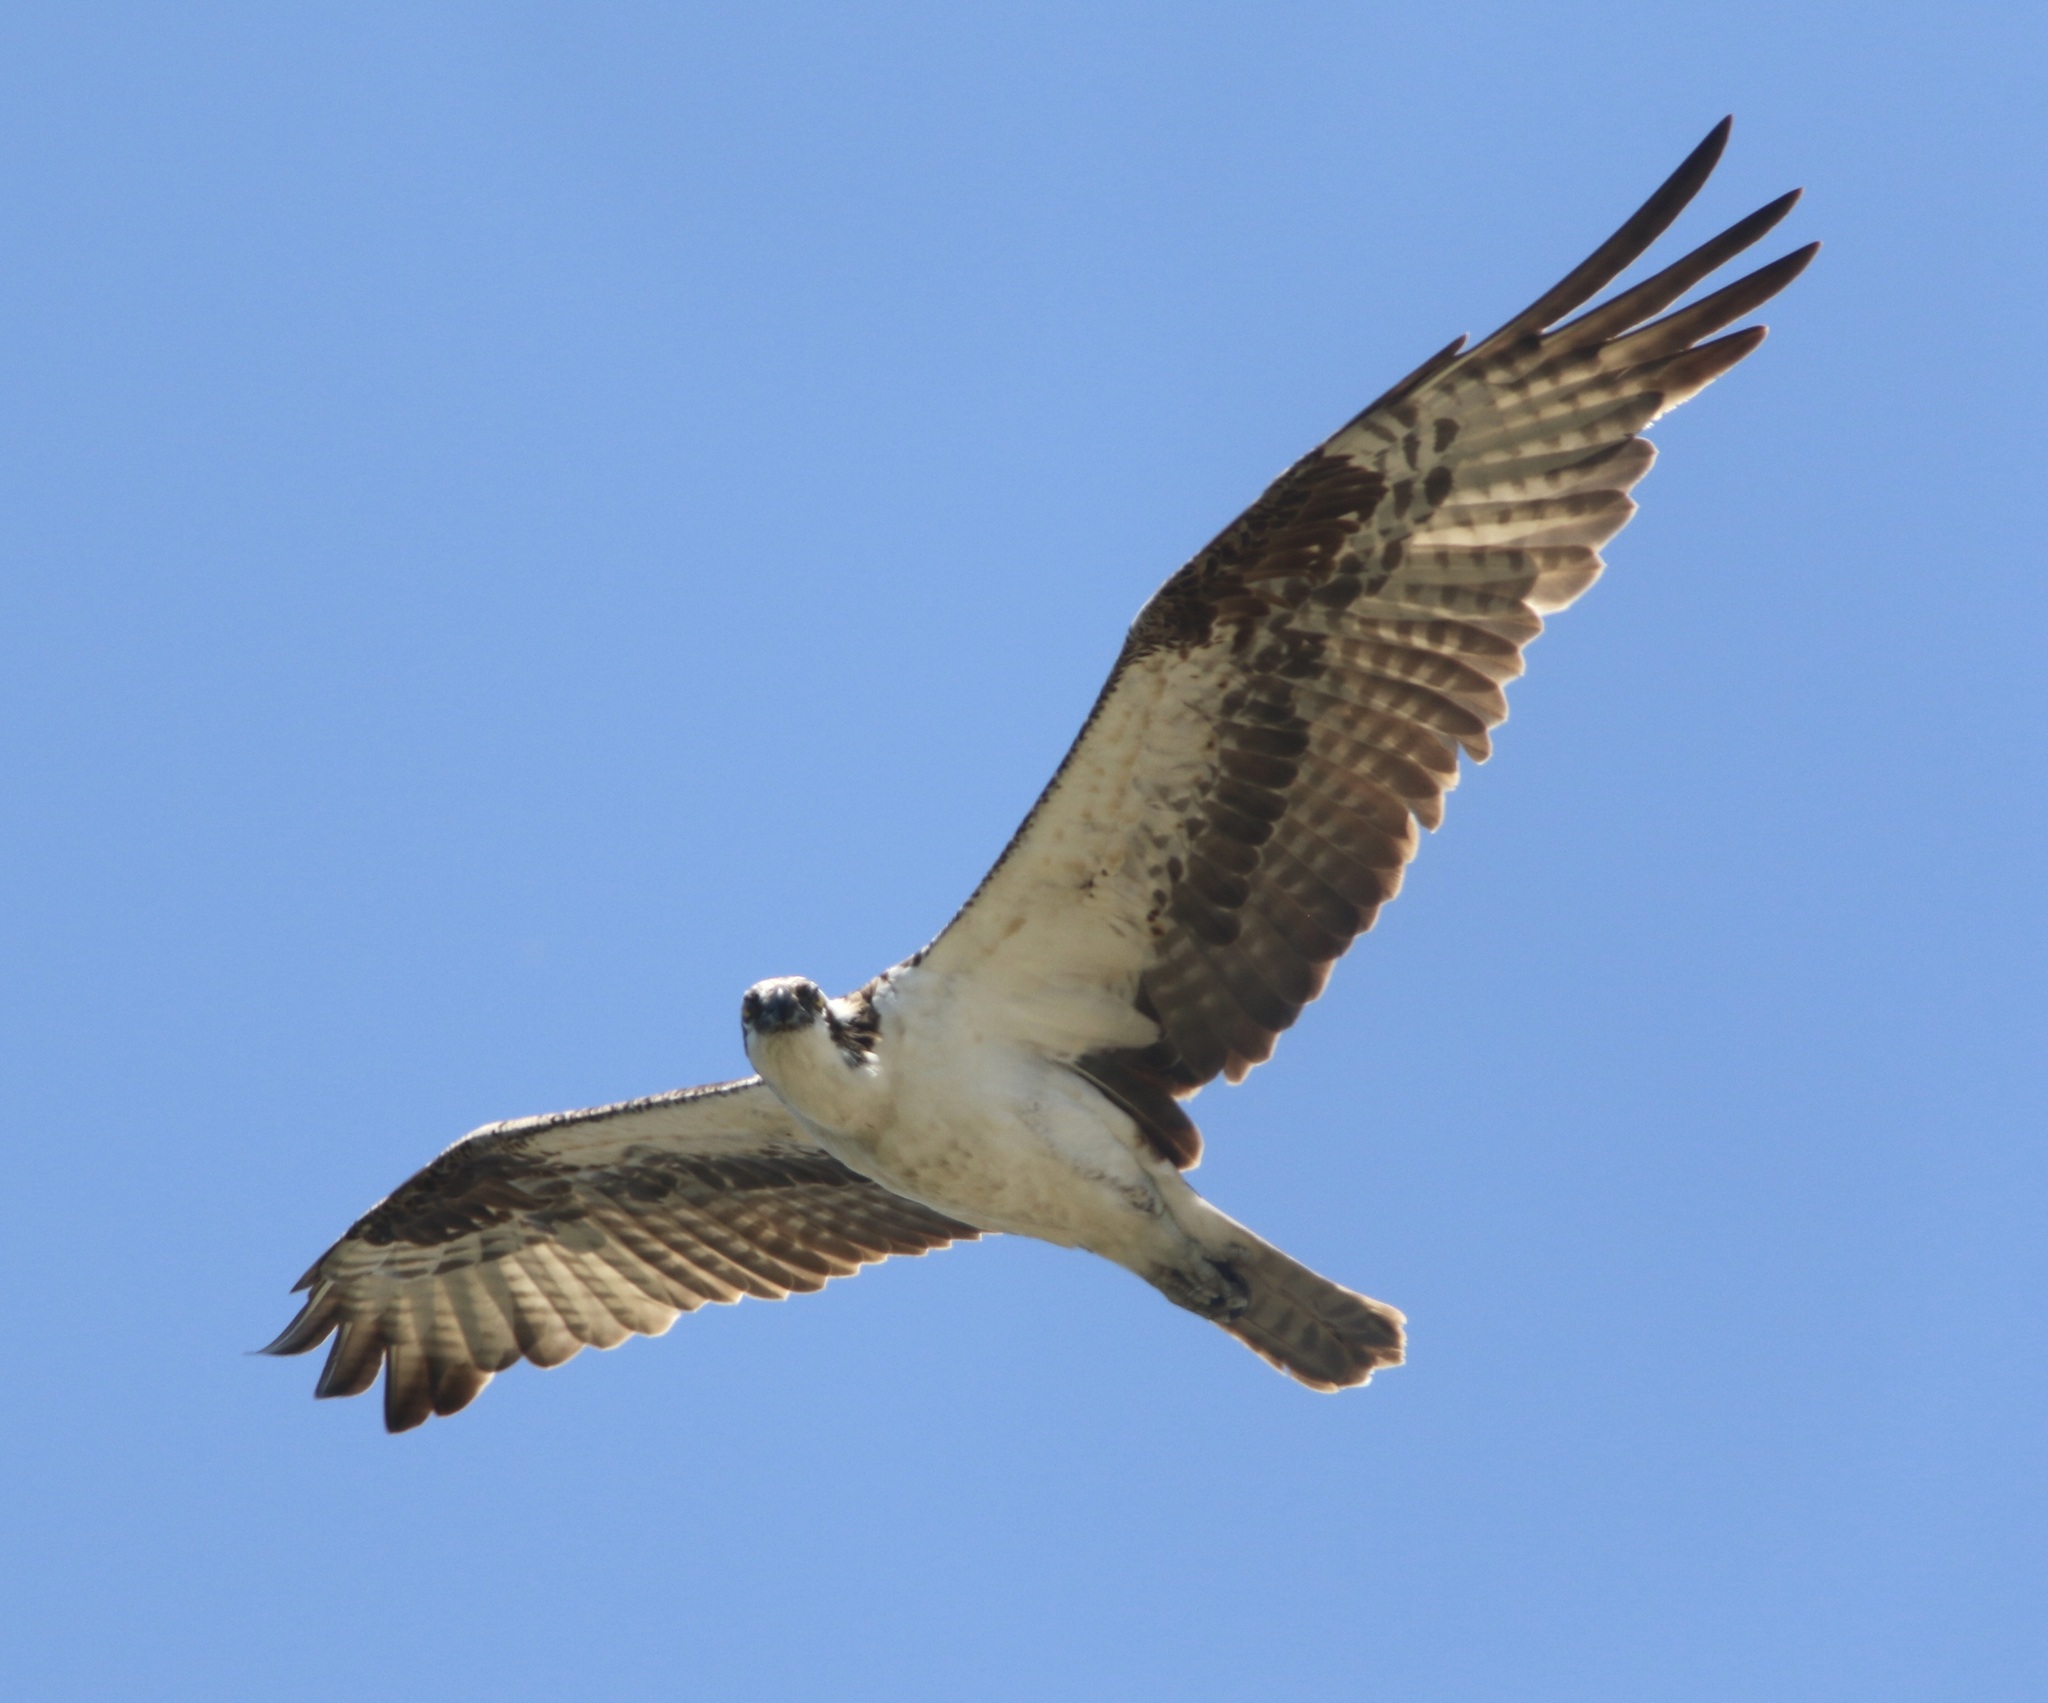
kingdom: Animalia
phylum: Chordata
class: Aves
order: Accipitriformes
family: Pandionidae
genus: Pandion
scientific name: Pandion haliaetus
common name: Osprey
